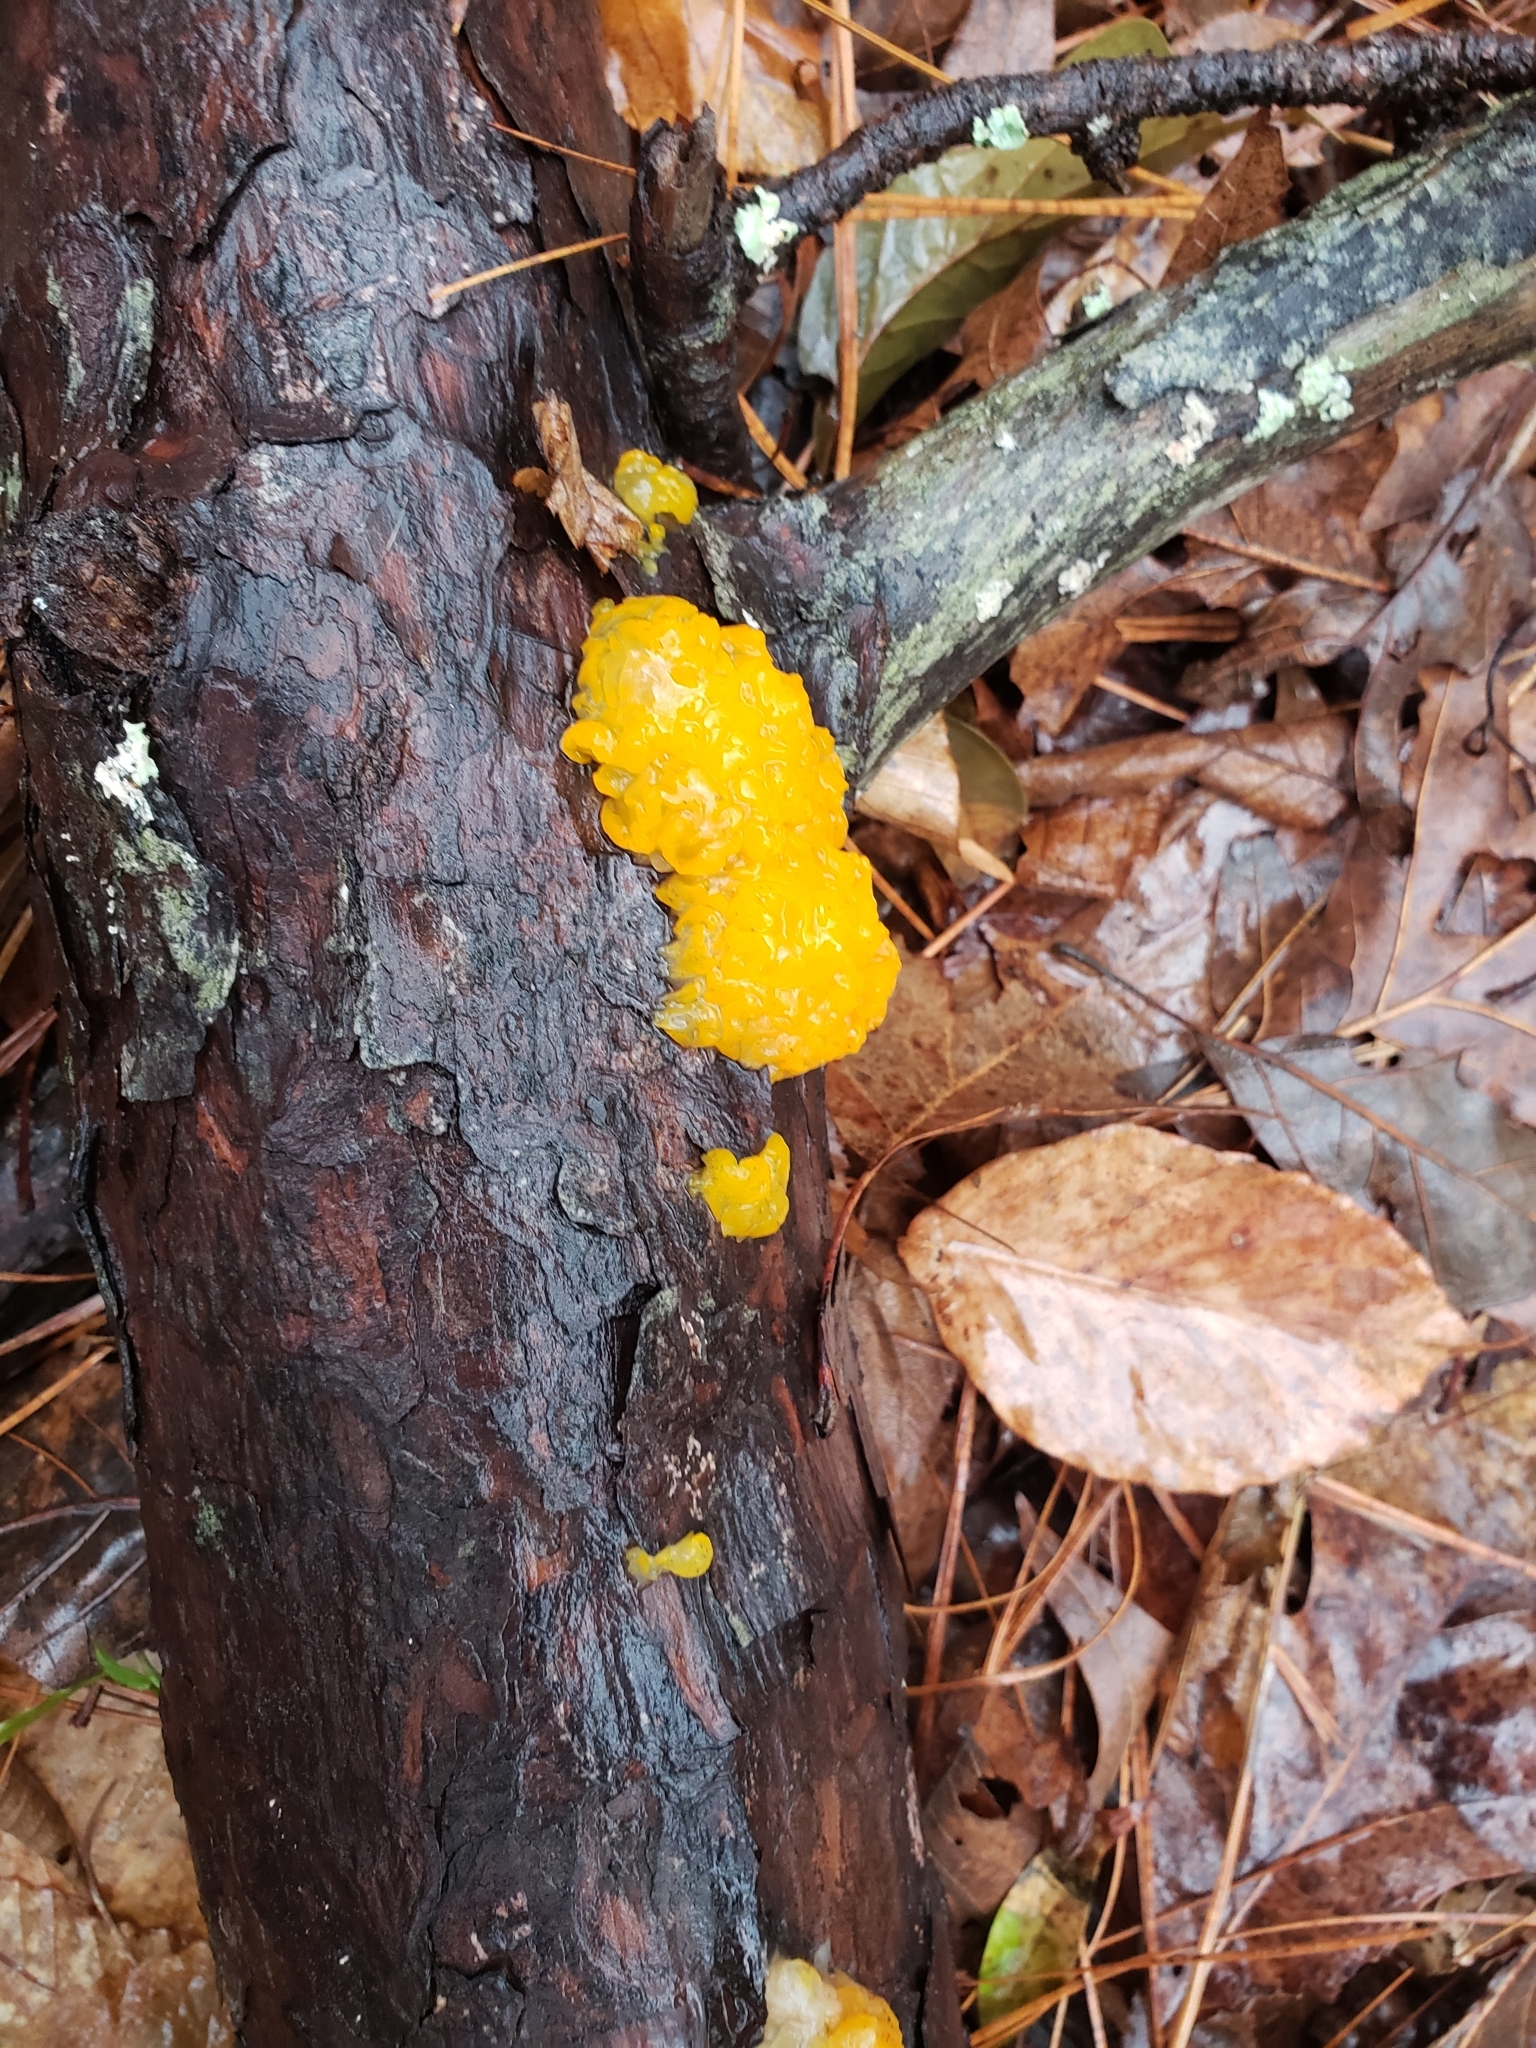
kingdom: Fungi
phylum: Basidiomycota
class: Dacrymycetes
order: Dacrymycetales
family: Dacrymycetaceae
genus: Dacrymyces
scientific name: Dacrymyces chrysospermus
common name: Orange jelly spot
